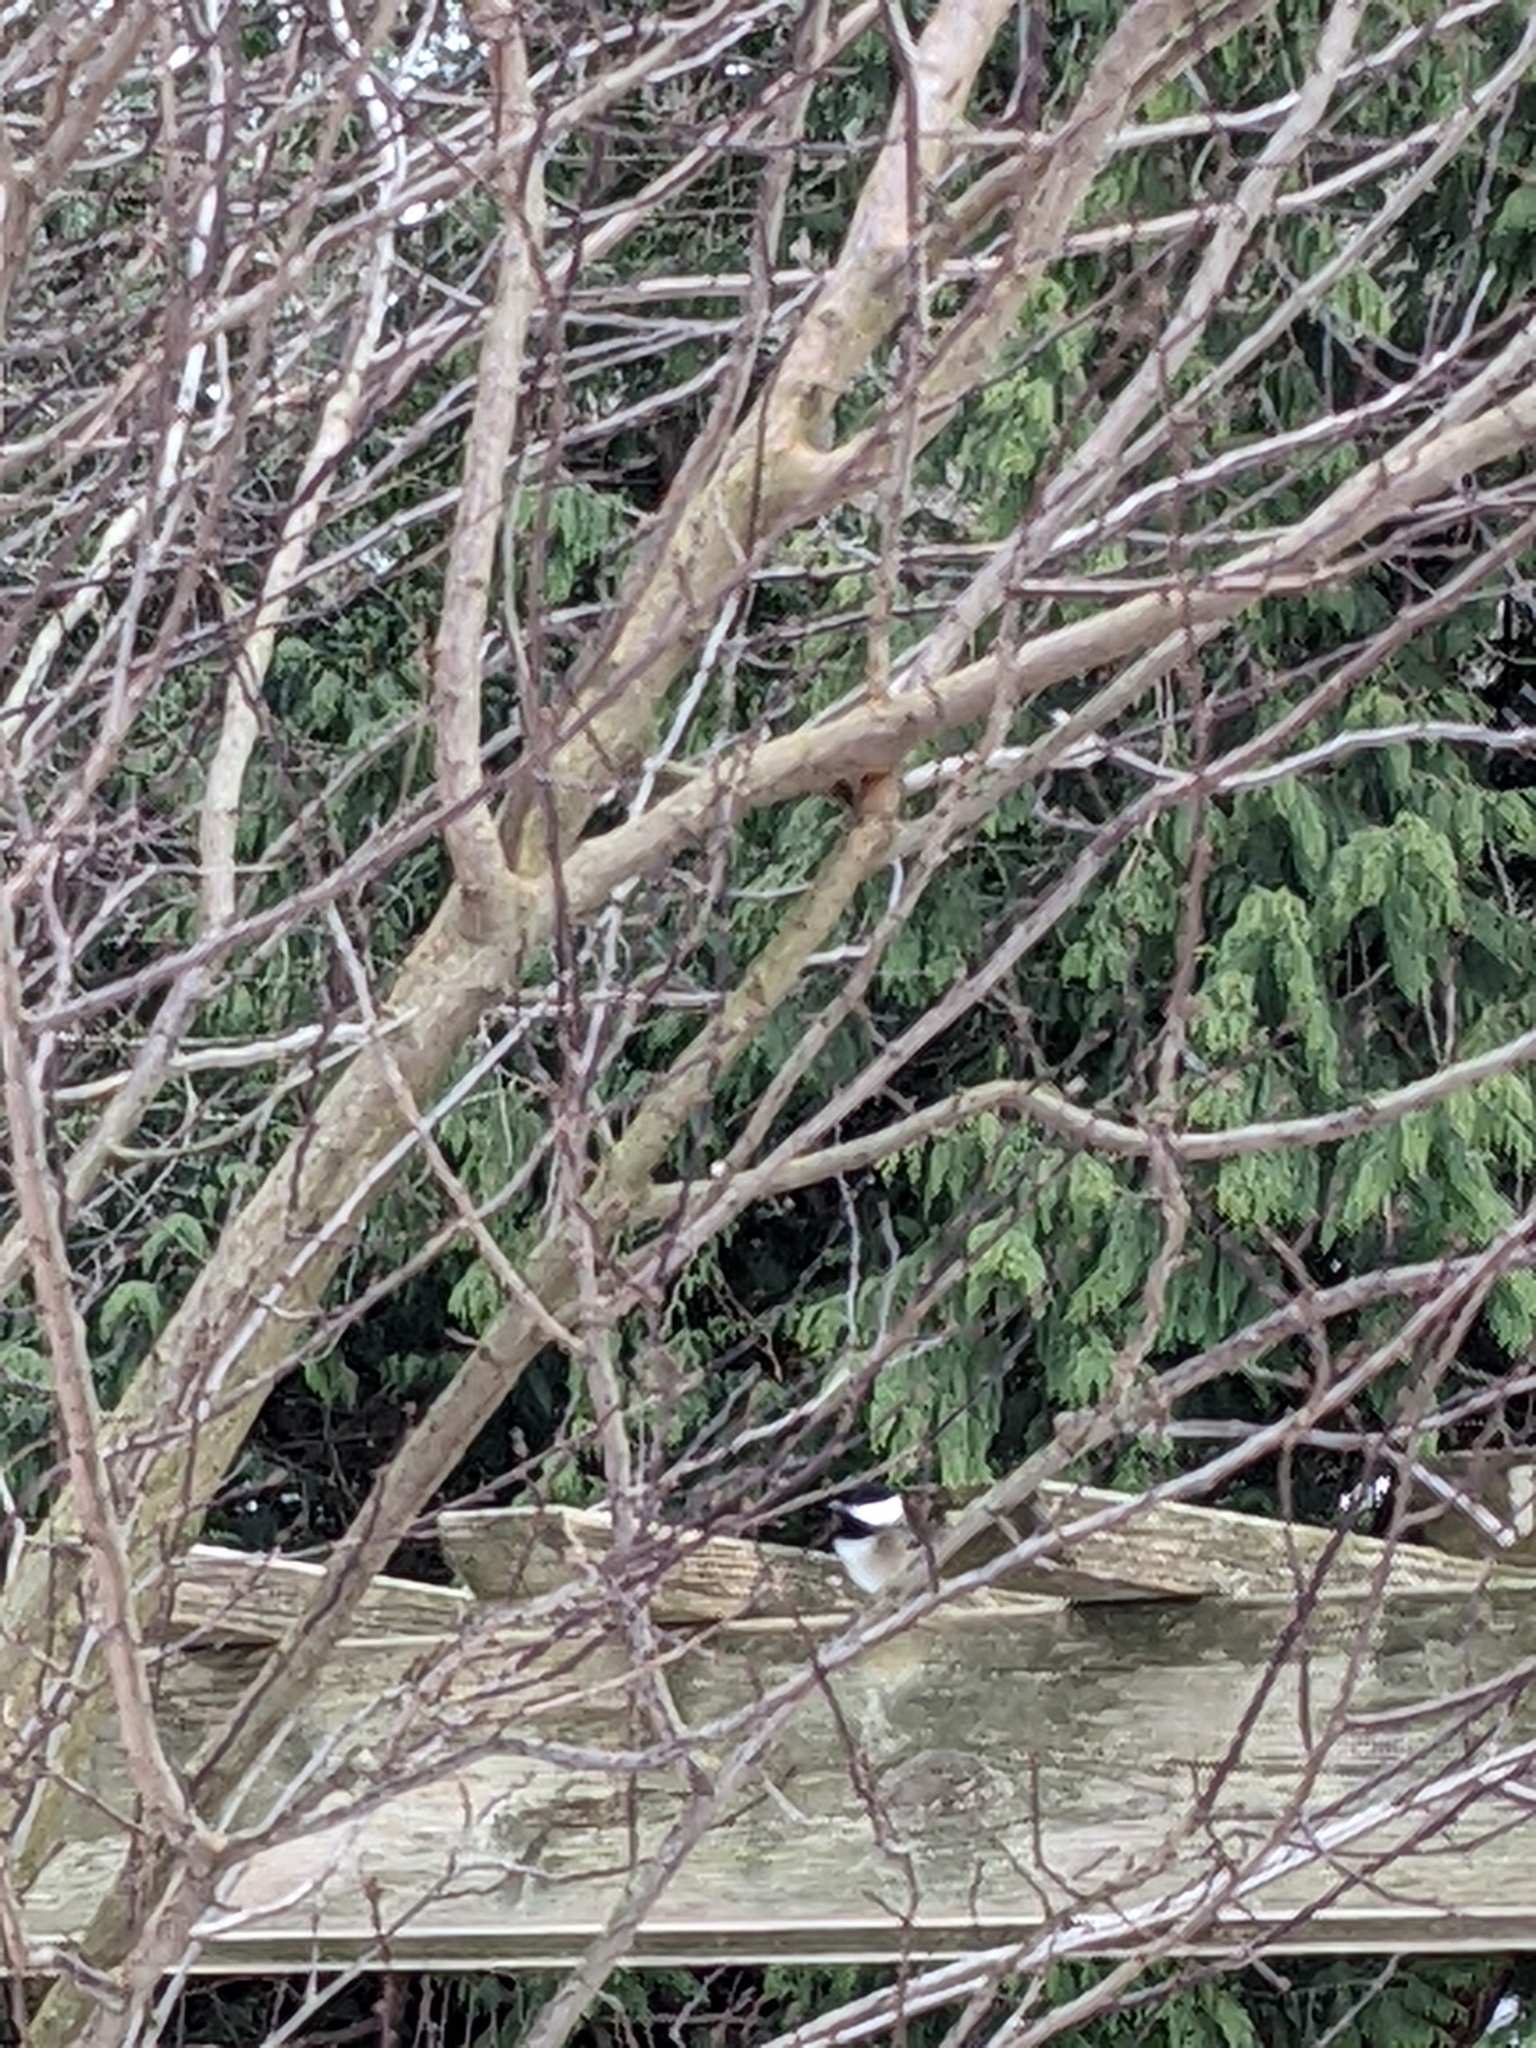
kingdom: Animalia
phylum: Chordata
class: Aves
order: Passeriformes
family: Paridae
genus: Poecile
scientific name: Poecile atricapillus
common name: Black-capped chickadee
